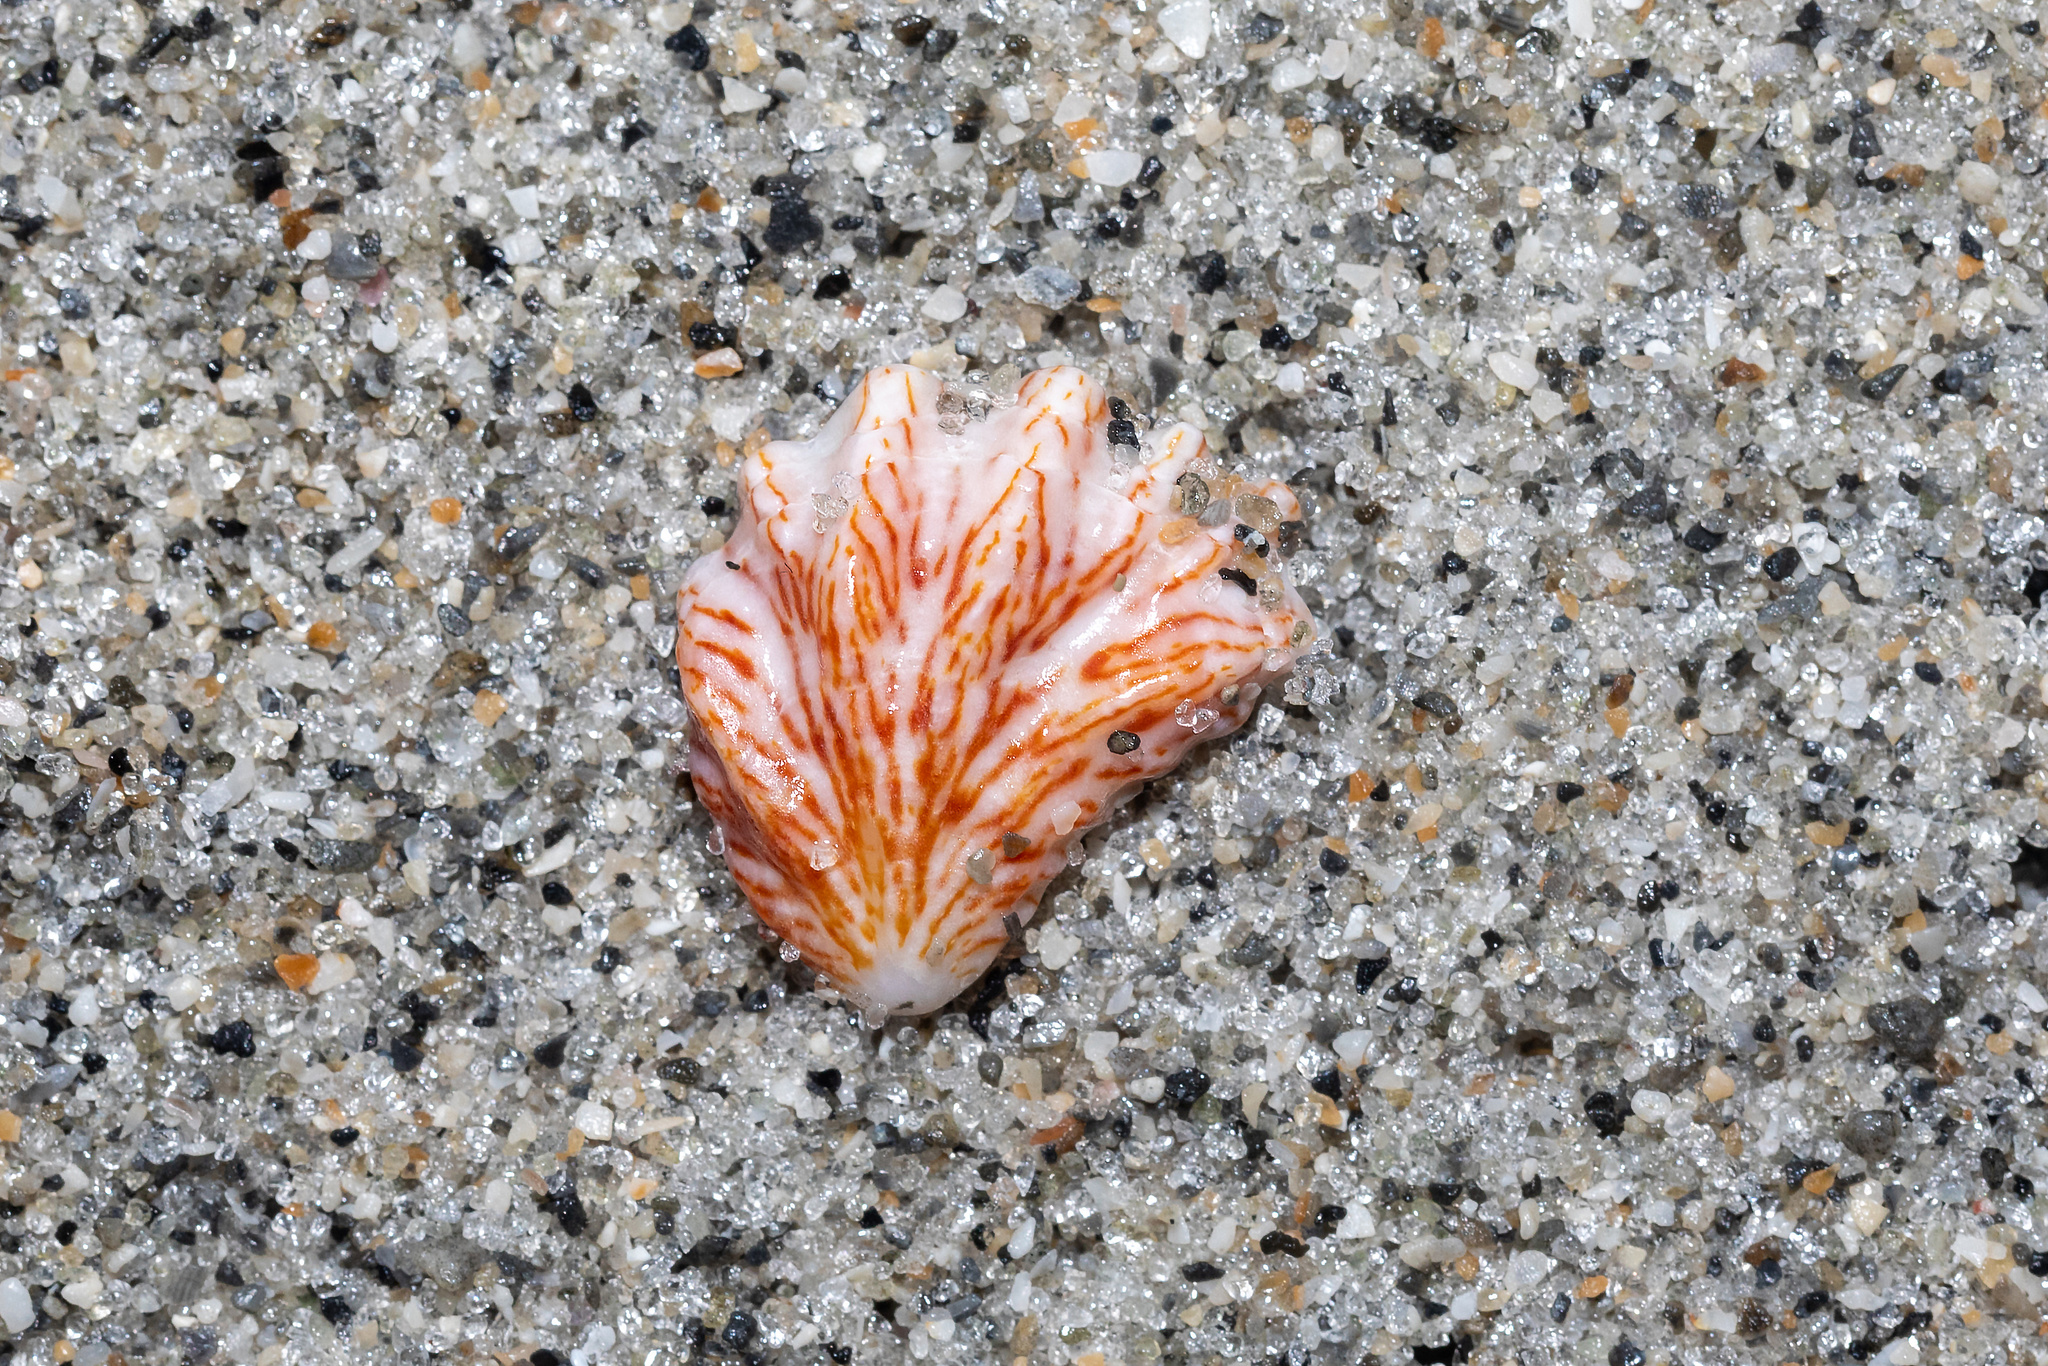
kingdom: Animalia
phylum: Mollusca
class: Bivalvia
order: Pectinida
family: Plicatulidae
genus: Plicatula
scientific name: Plicatula gibbosa
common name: Atlantic kitten's paw
